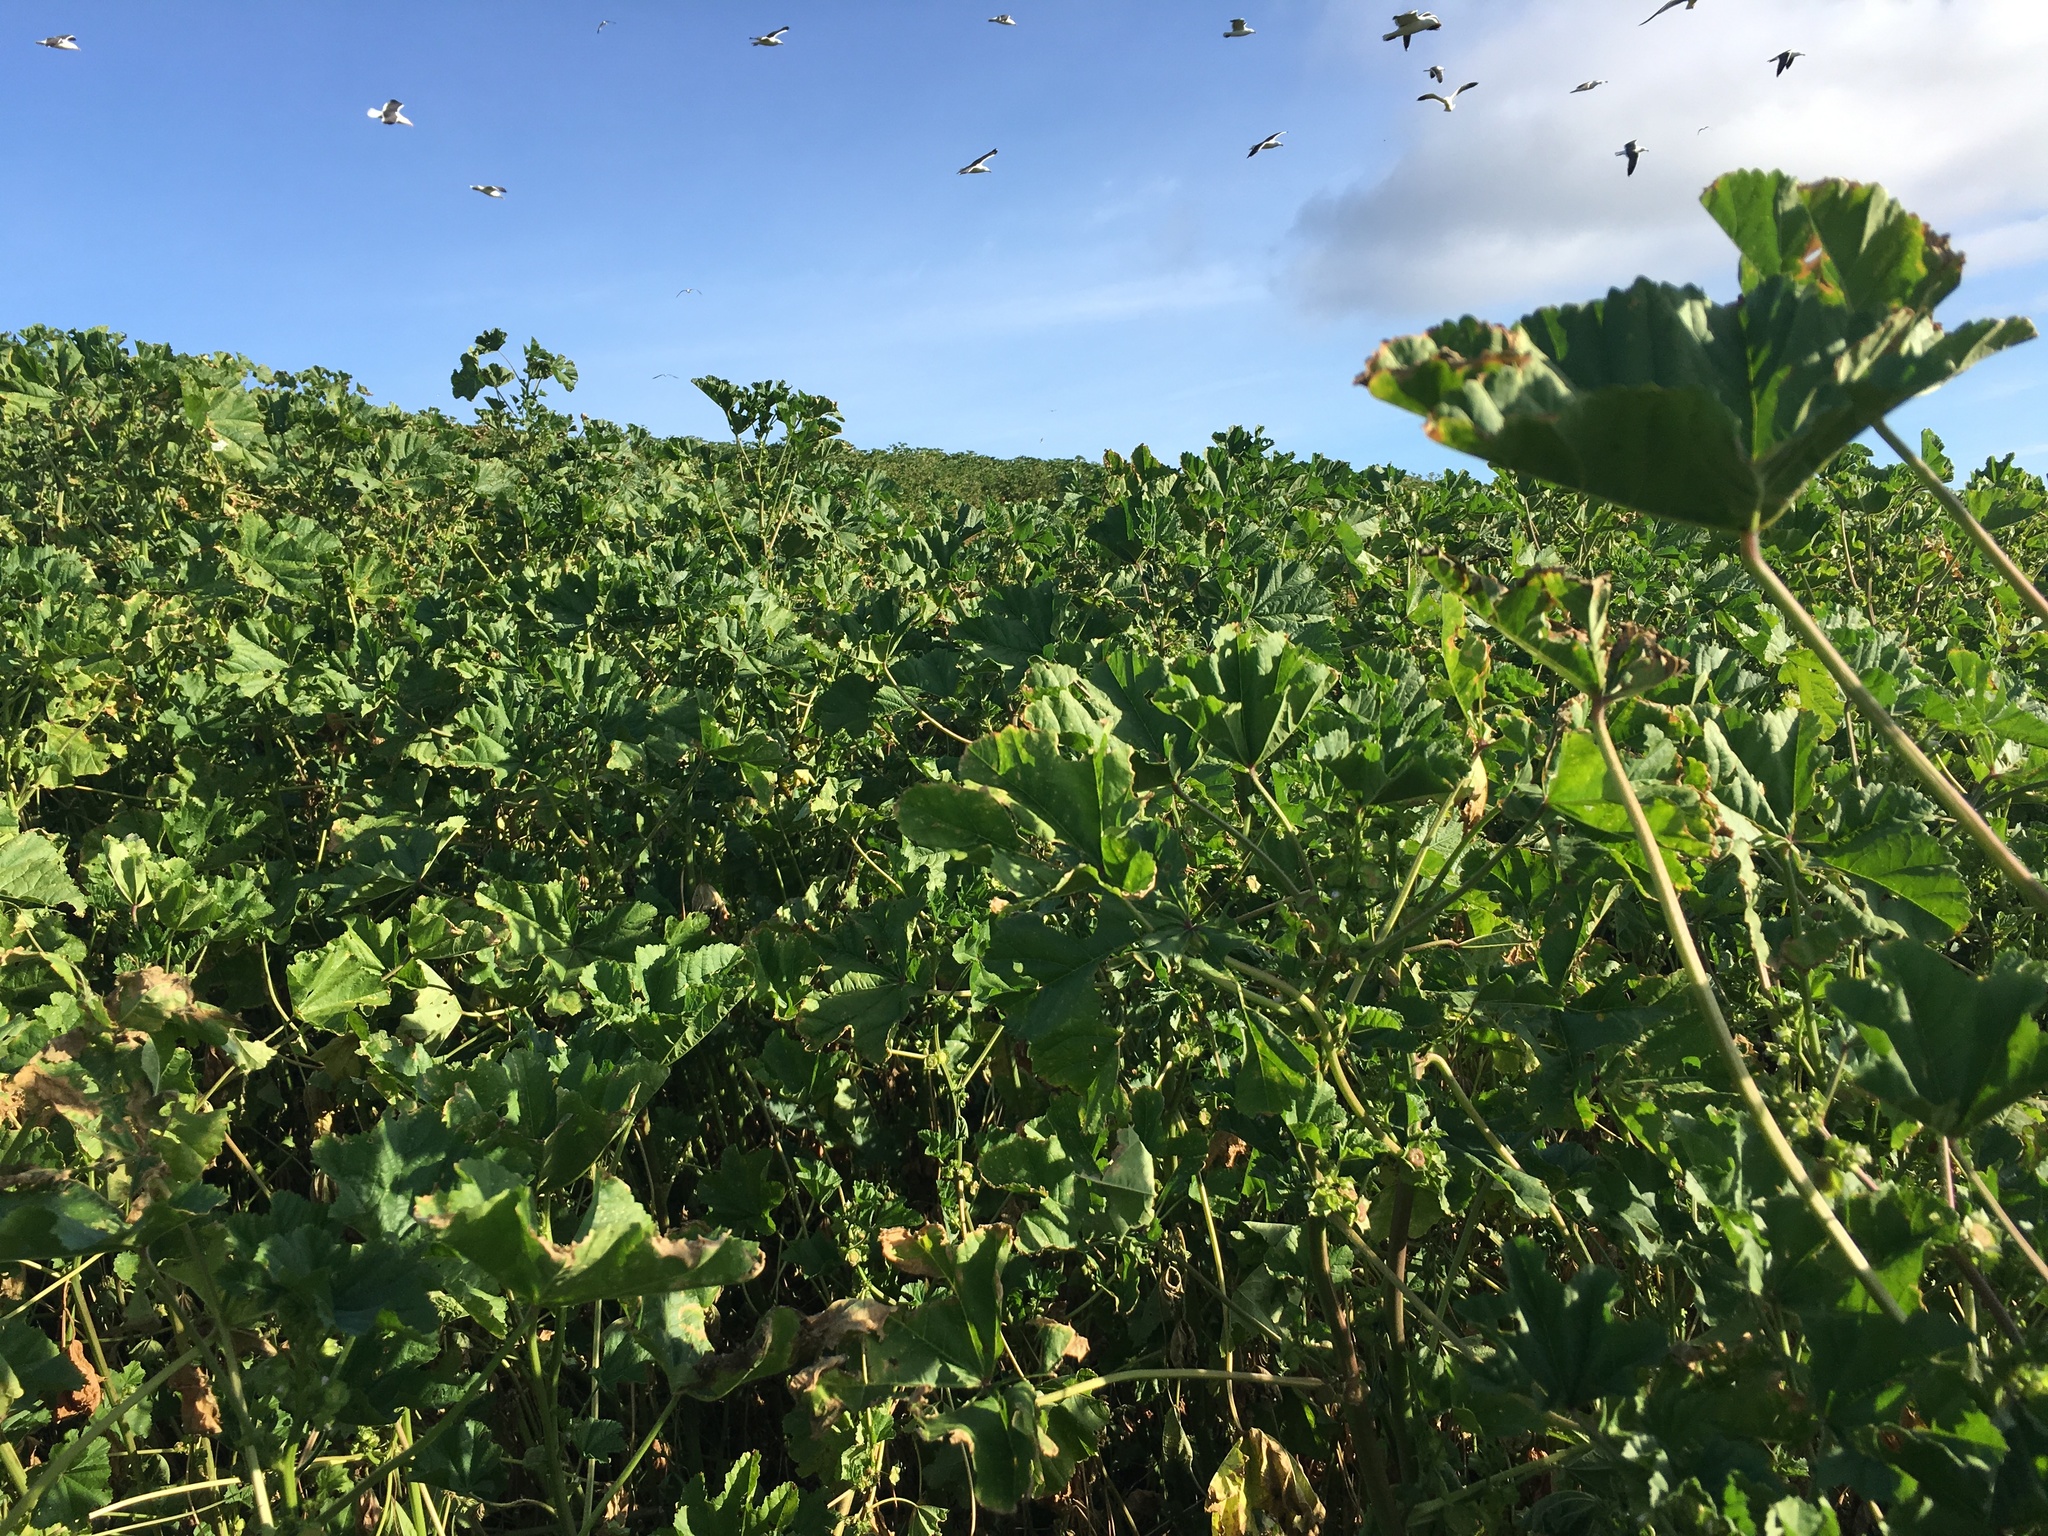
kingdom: Plantae
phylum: Tracheophyta
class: Magnoliopsida
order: Malvales
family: Malvaceae
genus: Malva
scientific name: Malva parviflora
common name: Least mallow
